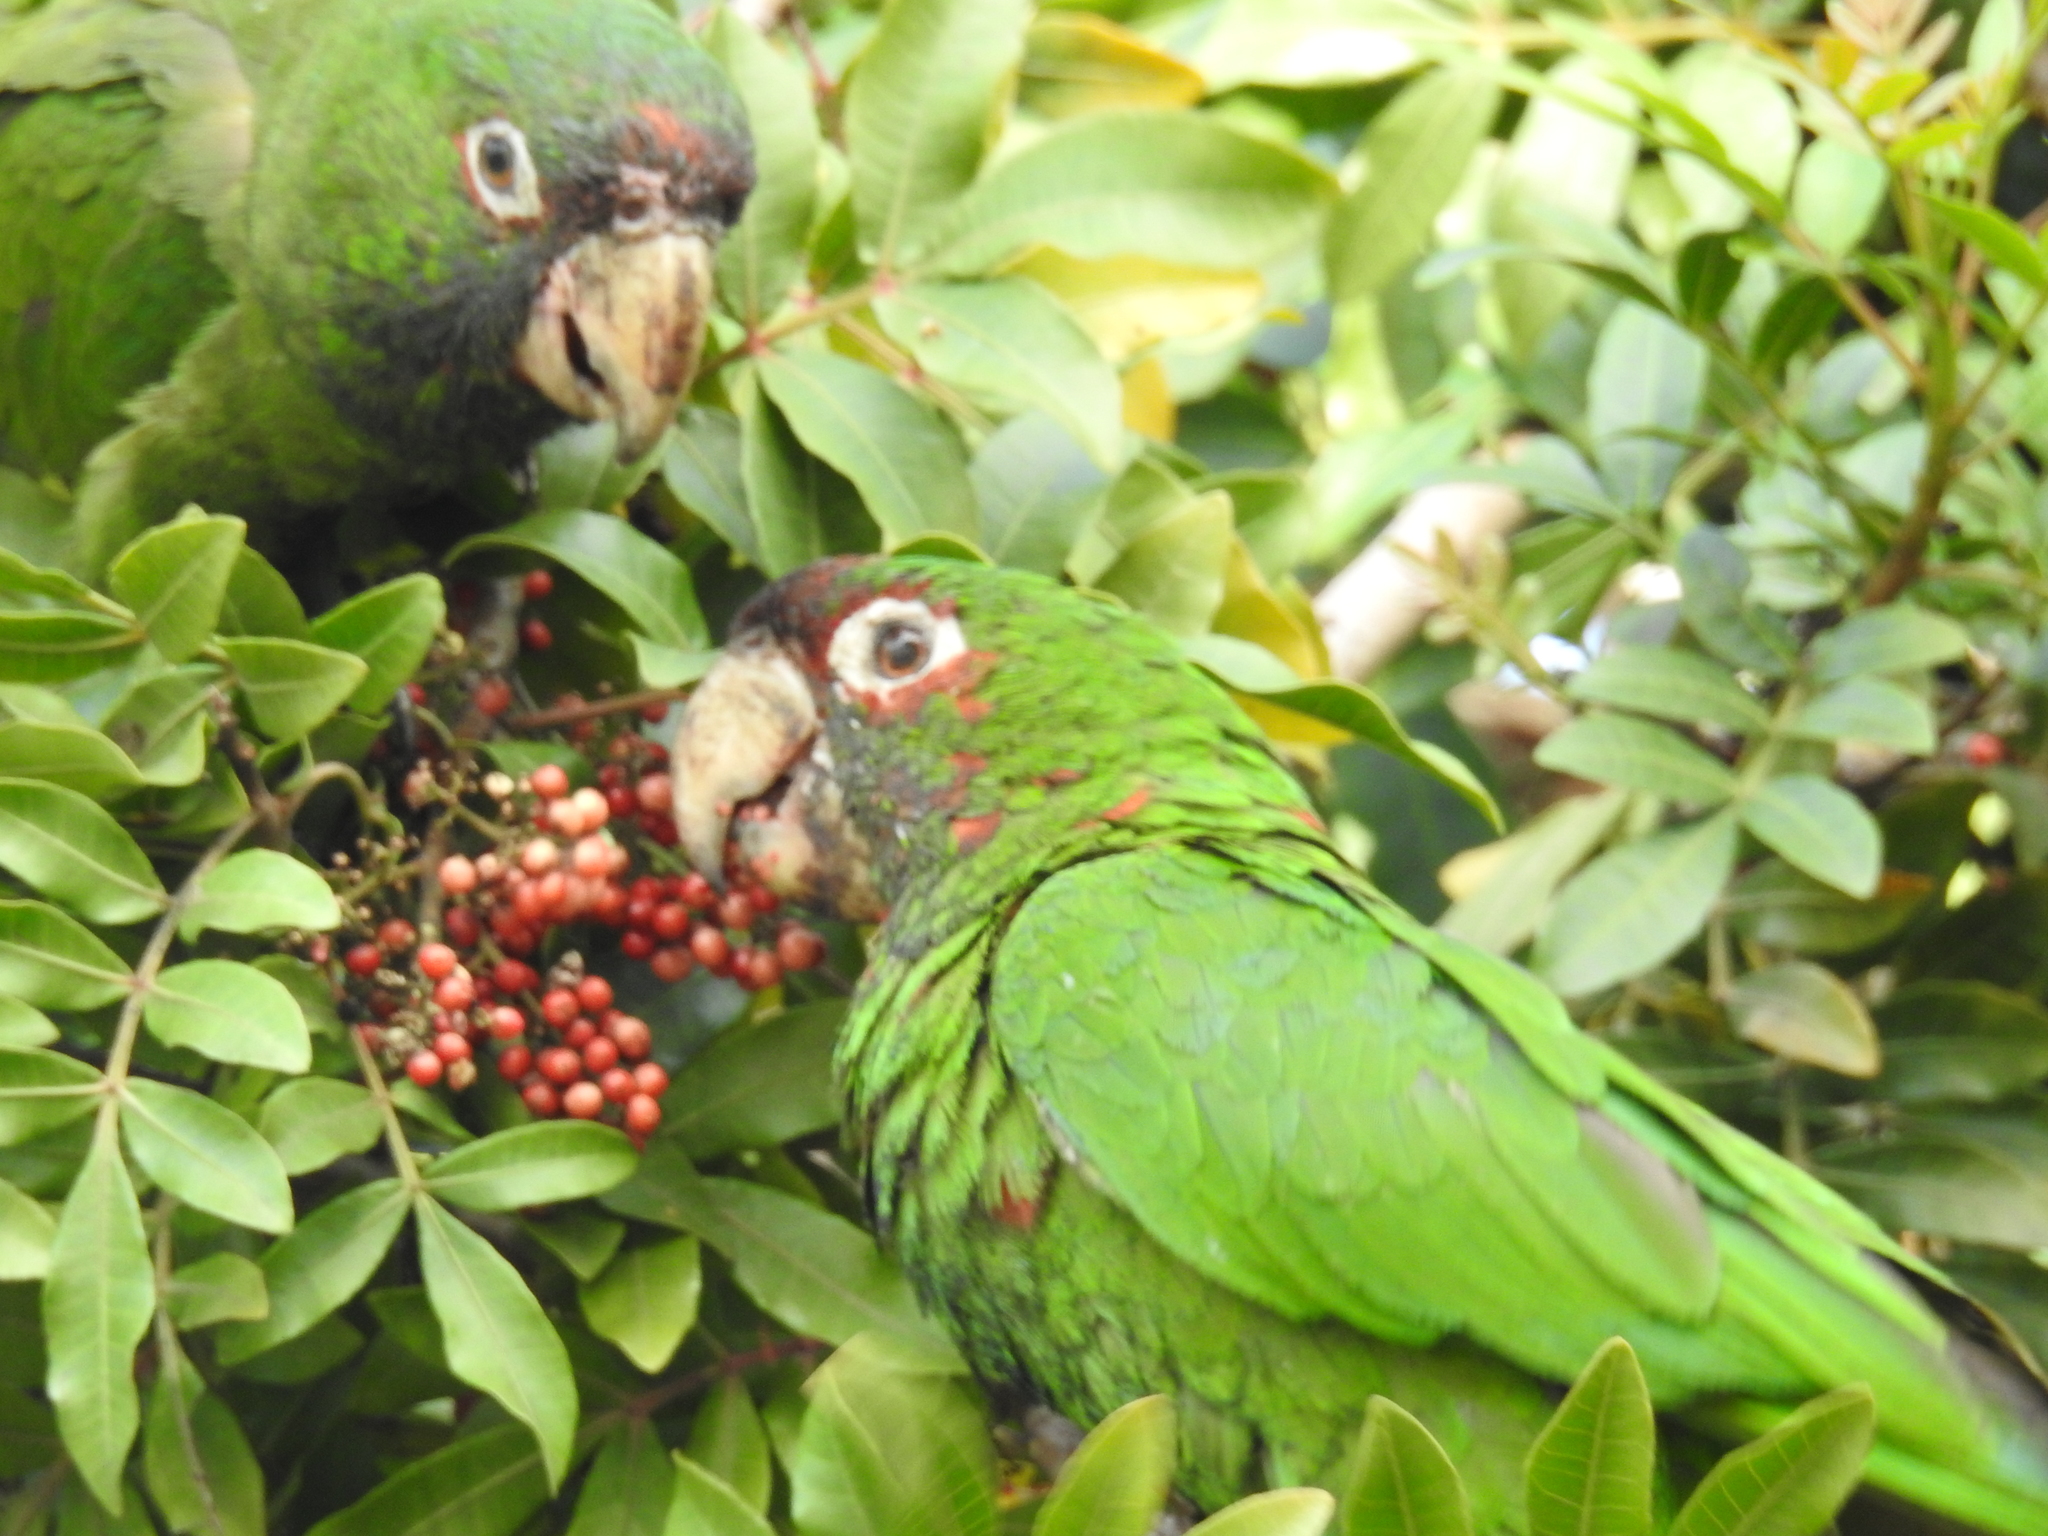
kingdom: Animalia
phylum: Chordata
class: Aves
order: Psittaciformes
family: Psittacidae
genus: Aratinga
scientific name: Aratinga mitrata
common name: Mitred parakeet
